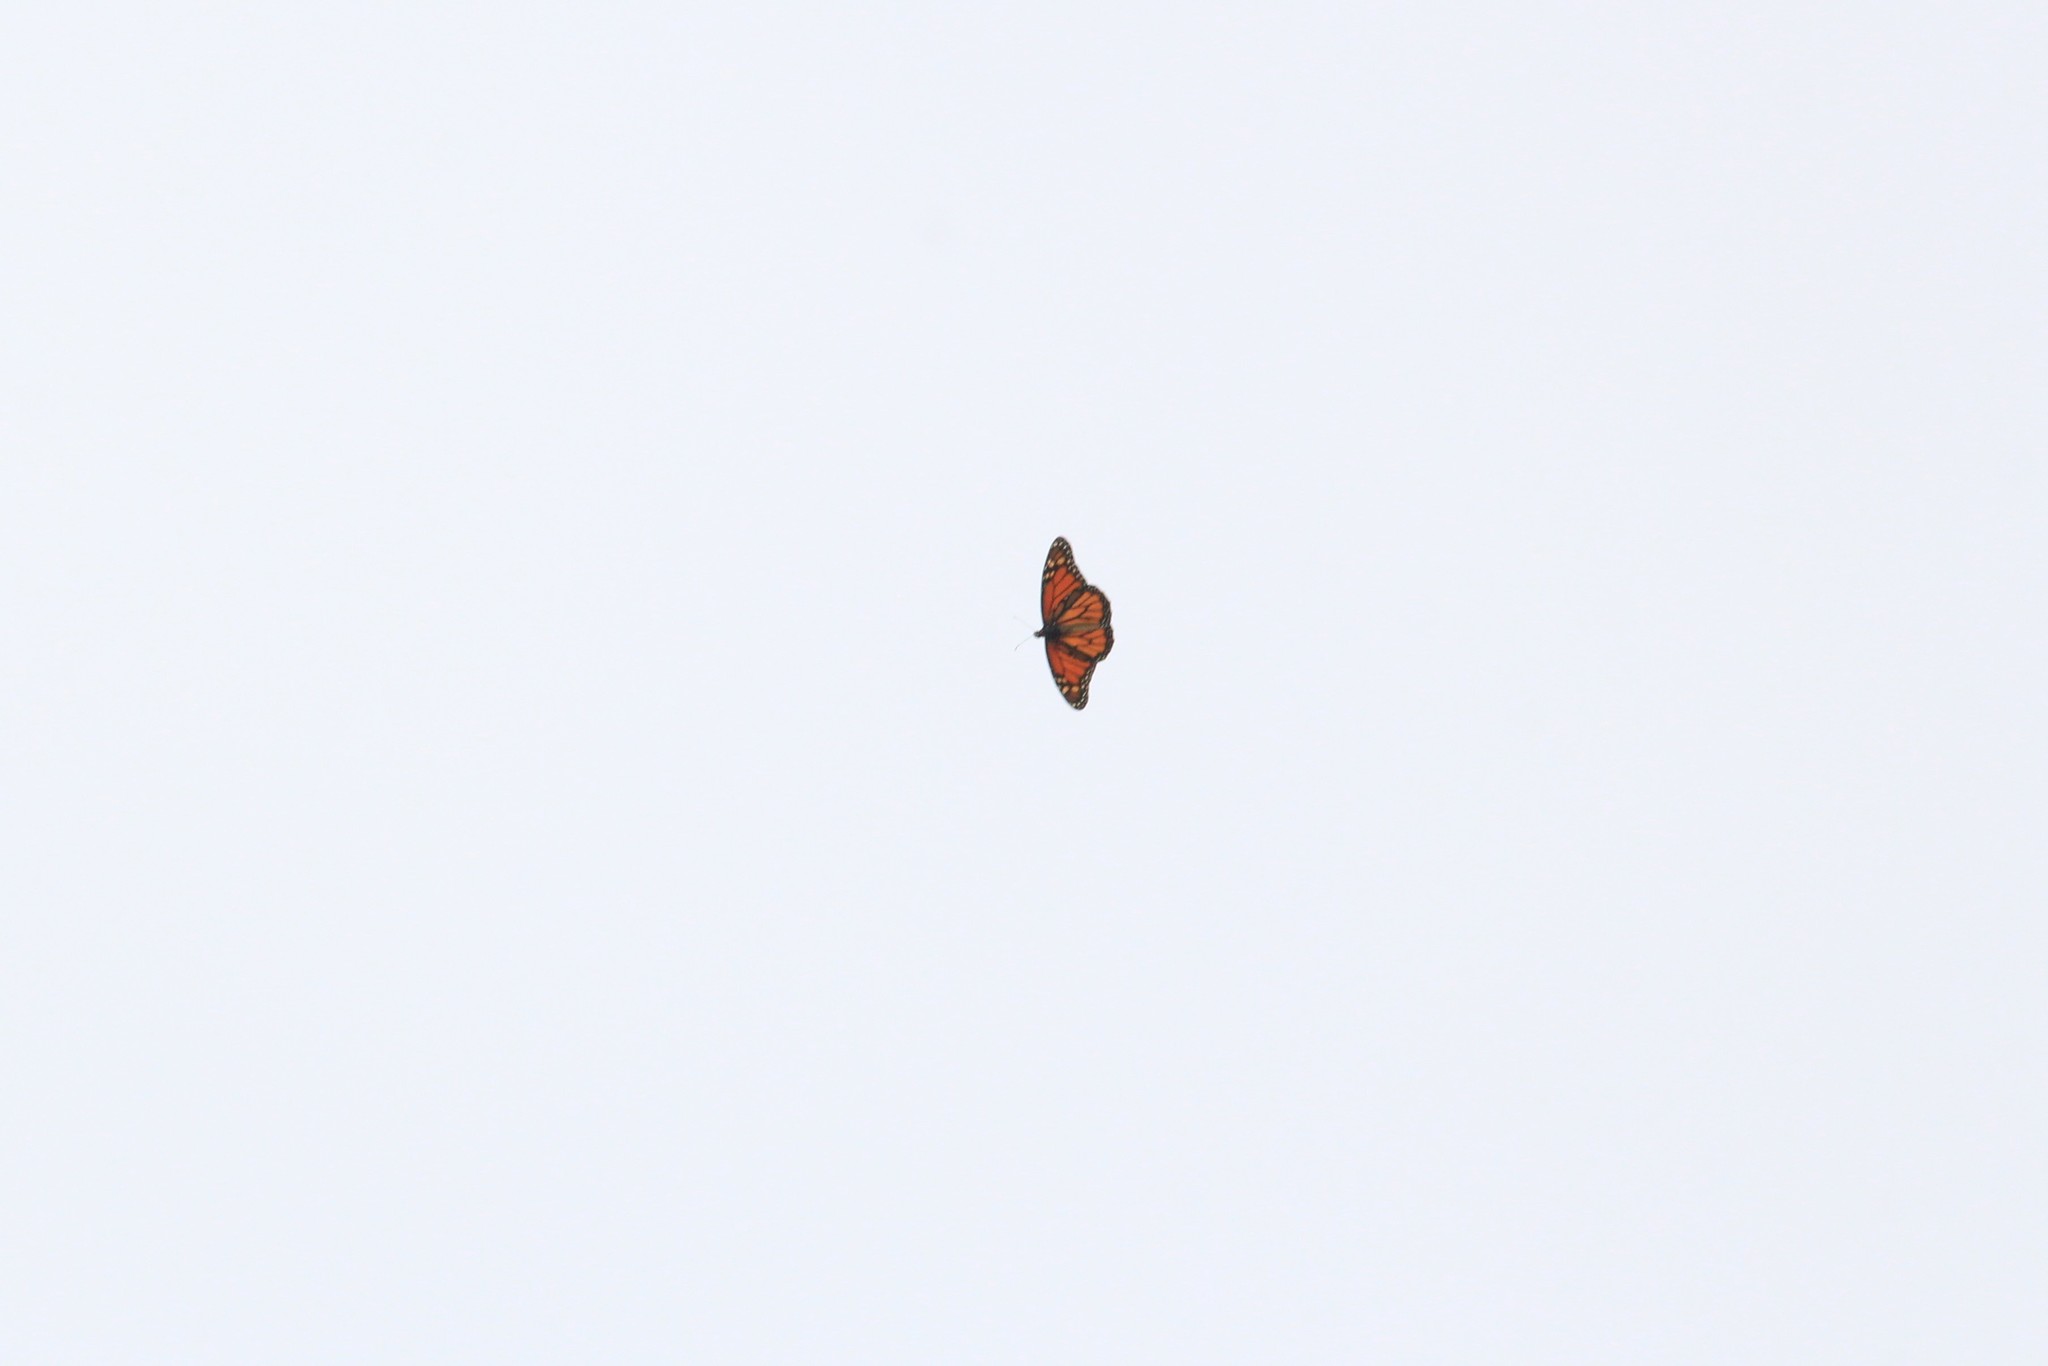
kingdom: Animalia
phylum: Arthropoda
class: Insecta
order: Lepidoptera
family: Nymphalidae
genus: Danaus
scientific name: Danaus plexippus
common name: Monarch
